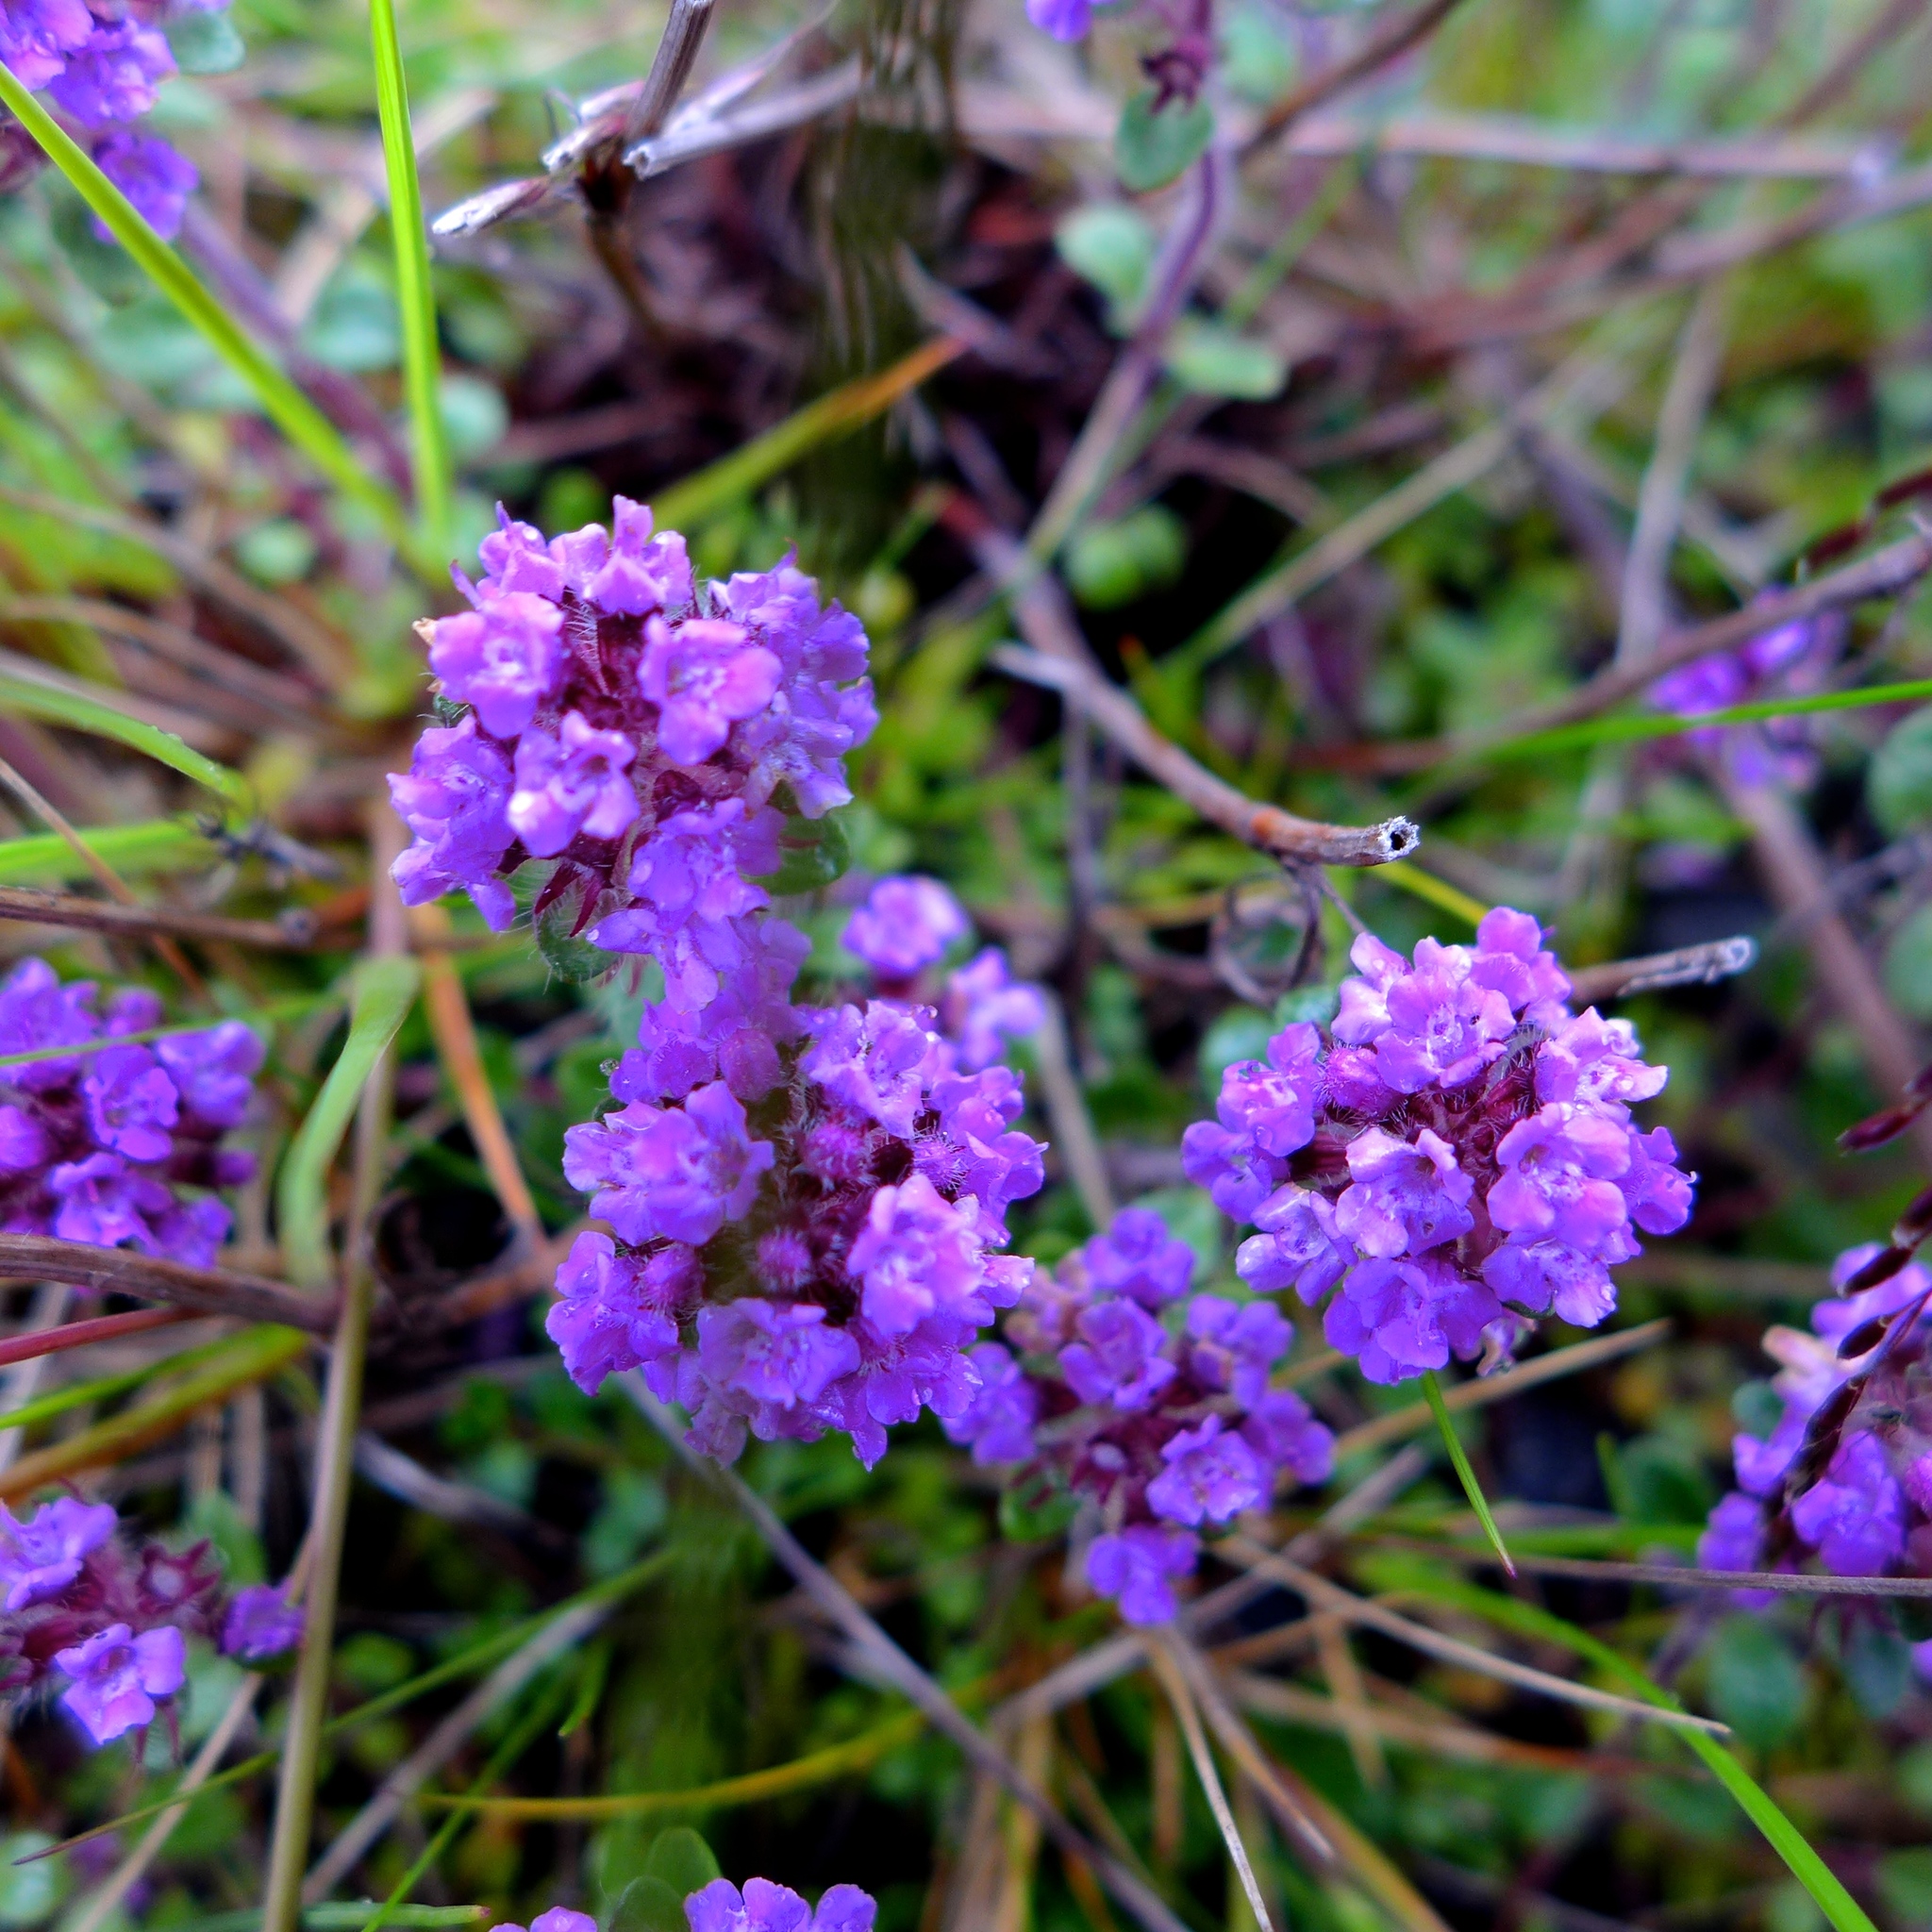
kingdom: Plantae
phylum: Tracheophyta
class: Magnoliopsida
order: Lamiales
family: Lamiaceae
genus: Thymus
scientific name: Thymus praecox
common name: Wild thyme
